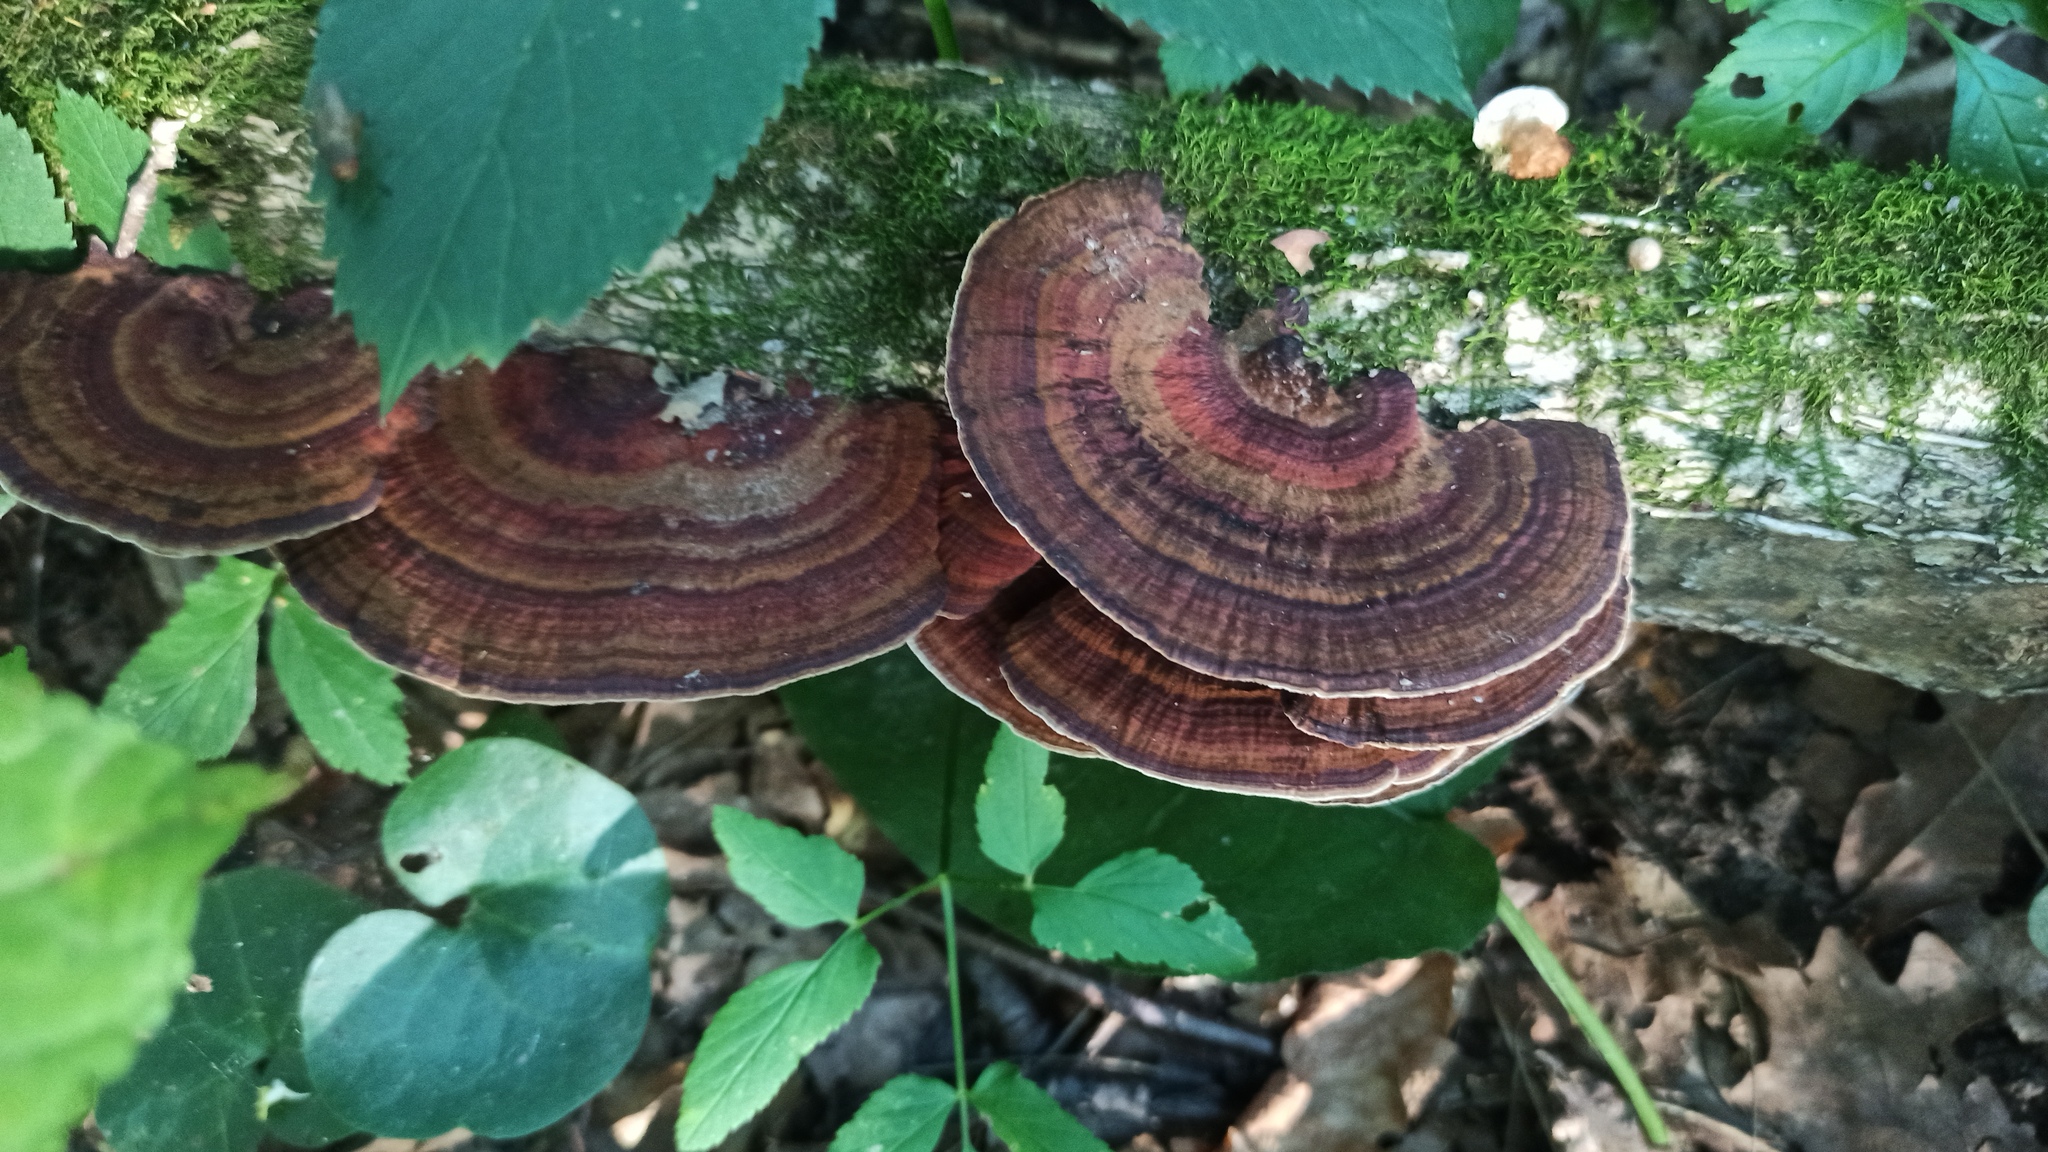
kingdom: Fungi
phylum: Basidiomycota
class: Agaricomycetes
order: Polyporales
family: Polyporaceae
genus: Daedaleopsis
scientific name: Daedaleopsis tricolor
